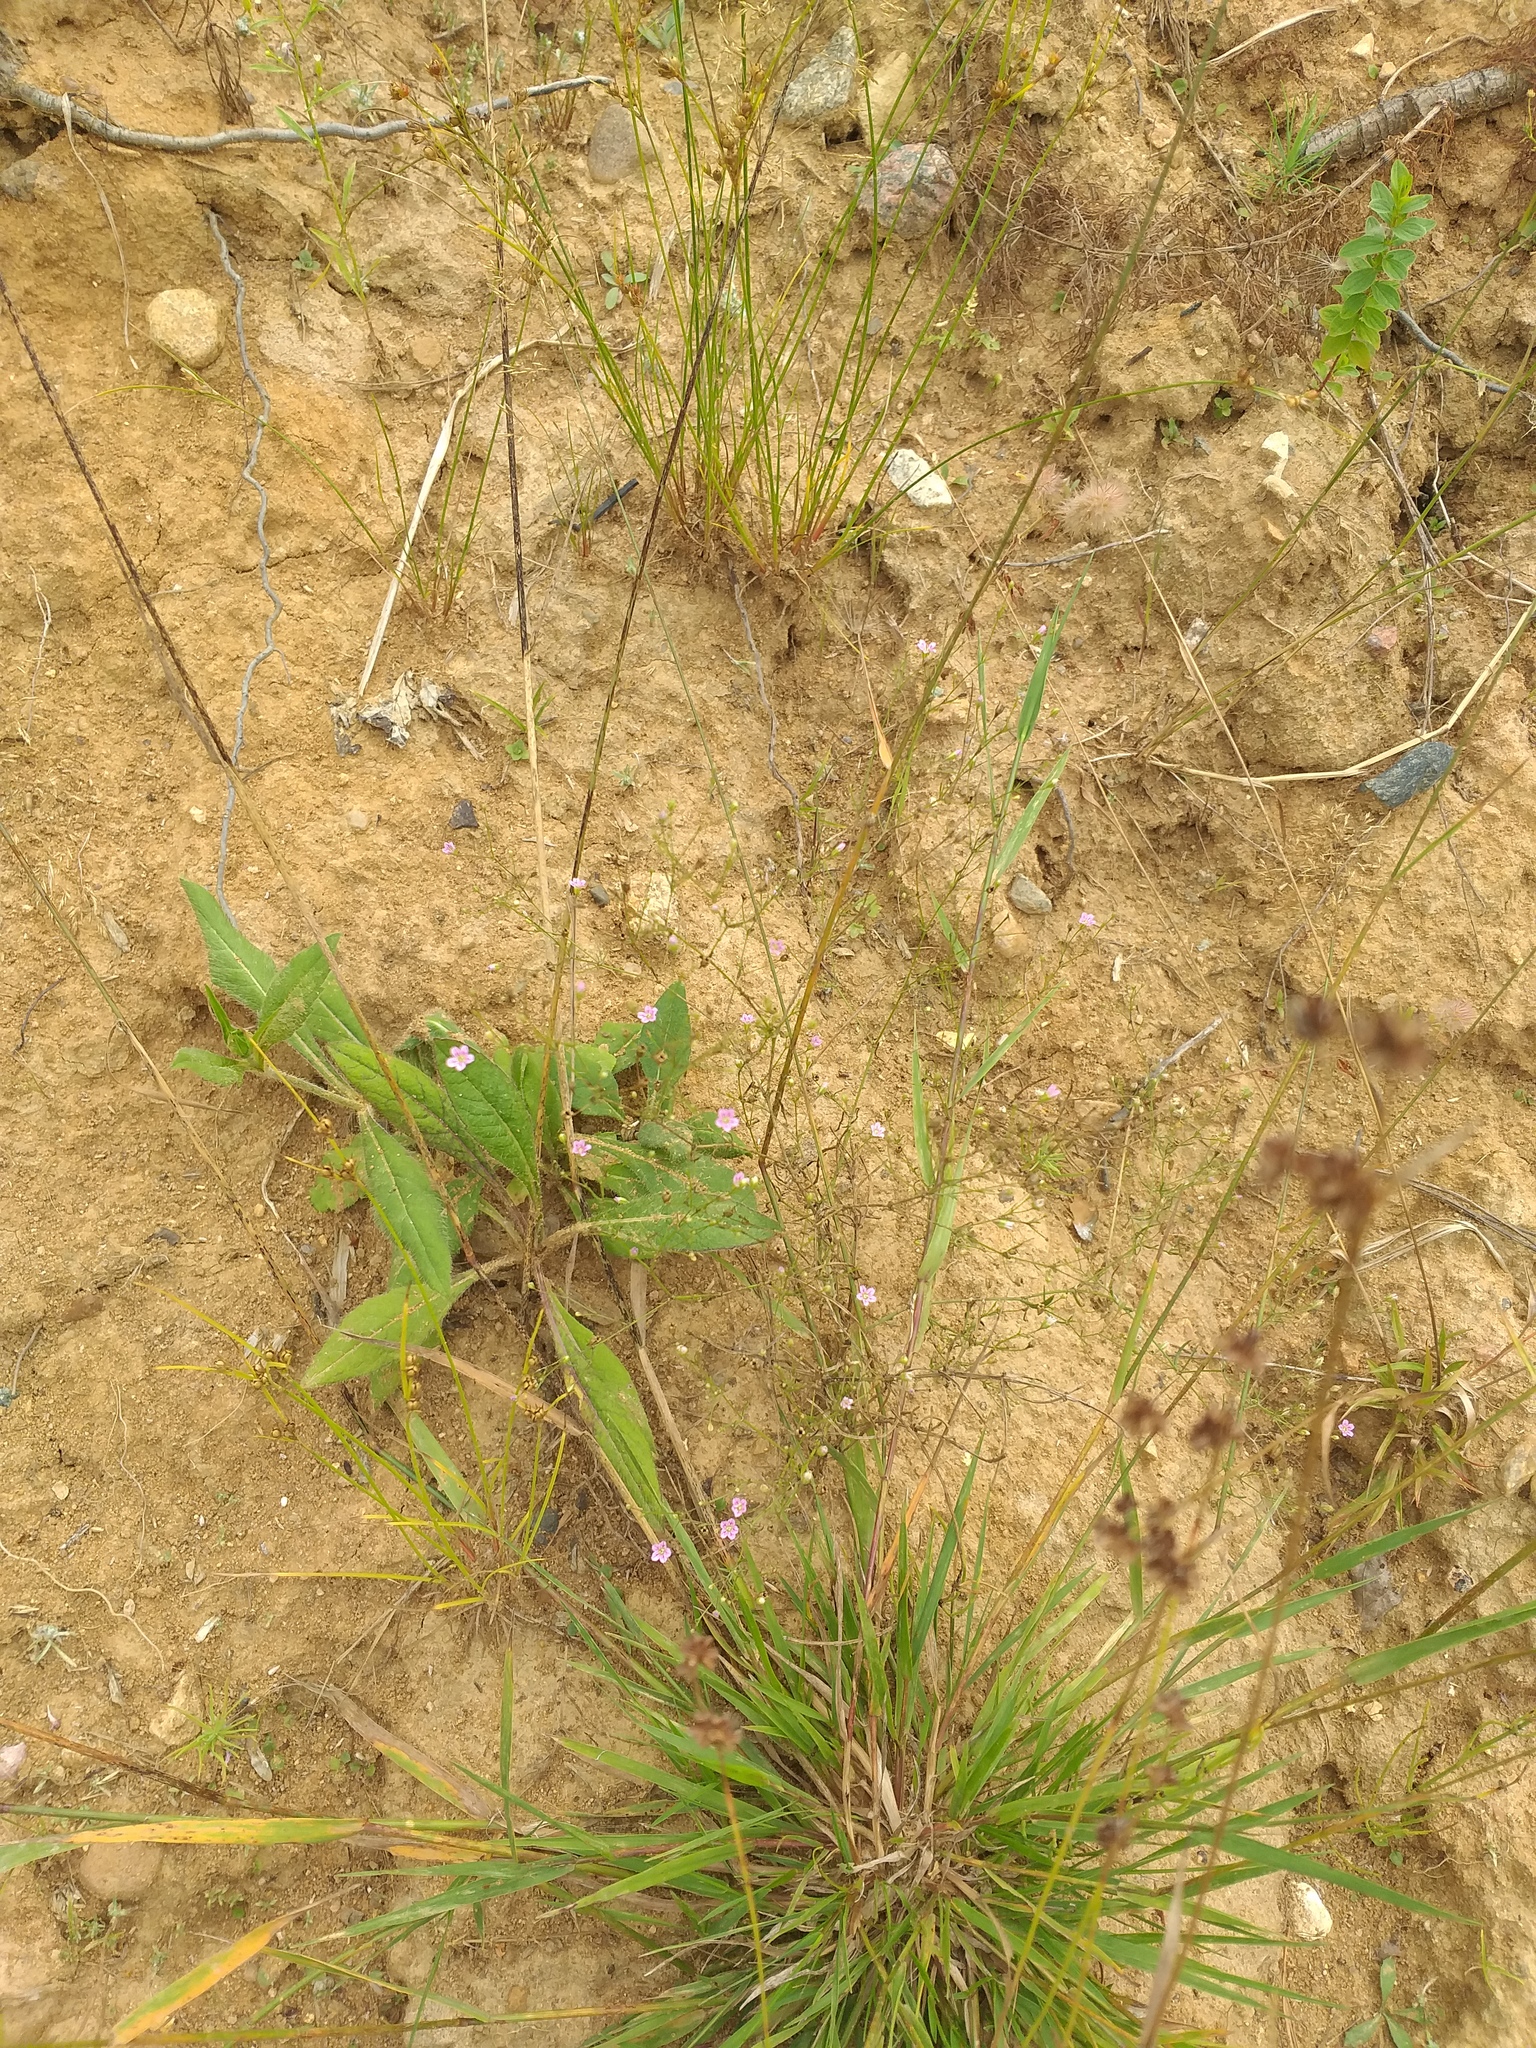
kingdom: Plantae
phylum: Tracheophyta
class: Magnoliopsida
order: Caryophyllales
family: Caryophyllaceae
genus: Psammophiliella
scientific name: Psammophiliella muralis
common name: Cushion baby's-breath
